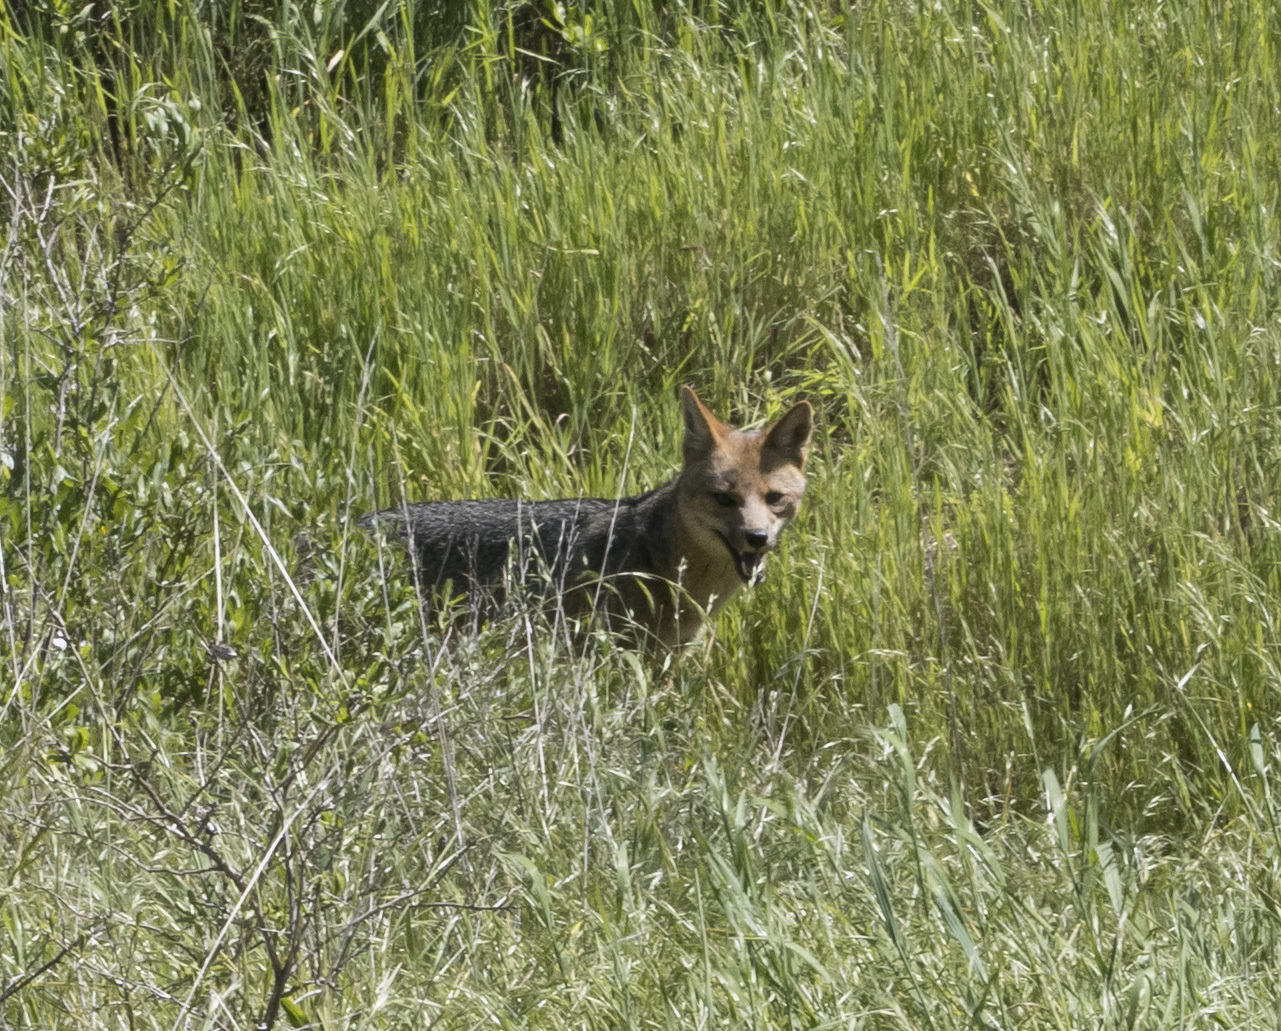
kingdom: Animalia
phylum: Chordata
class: Mammalia
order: Carnivora
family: Canidae
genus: Lycalopex
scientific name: Lycalopex culpaeus
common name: Culpeo
